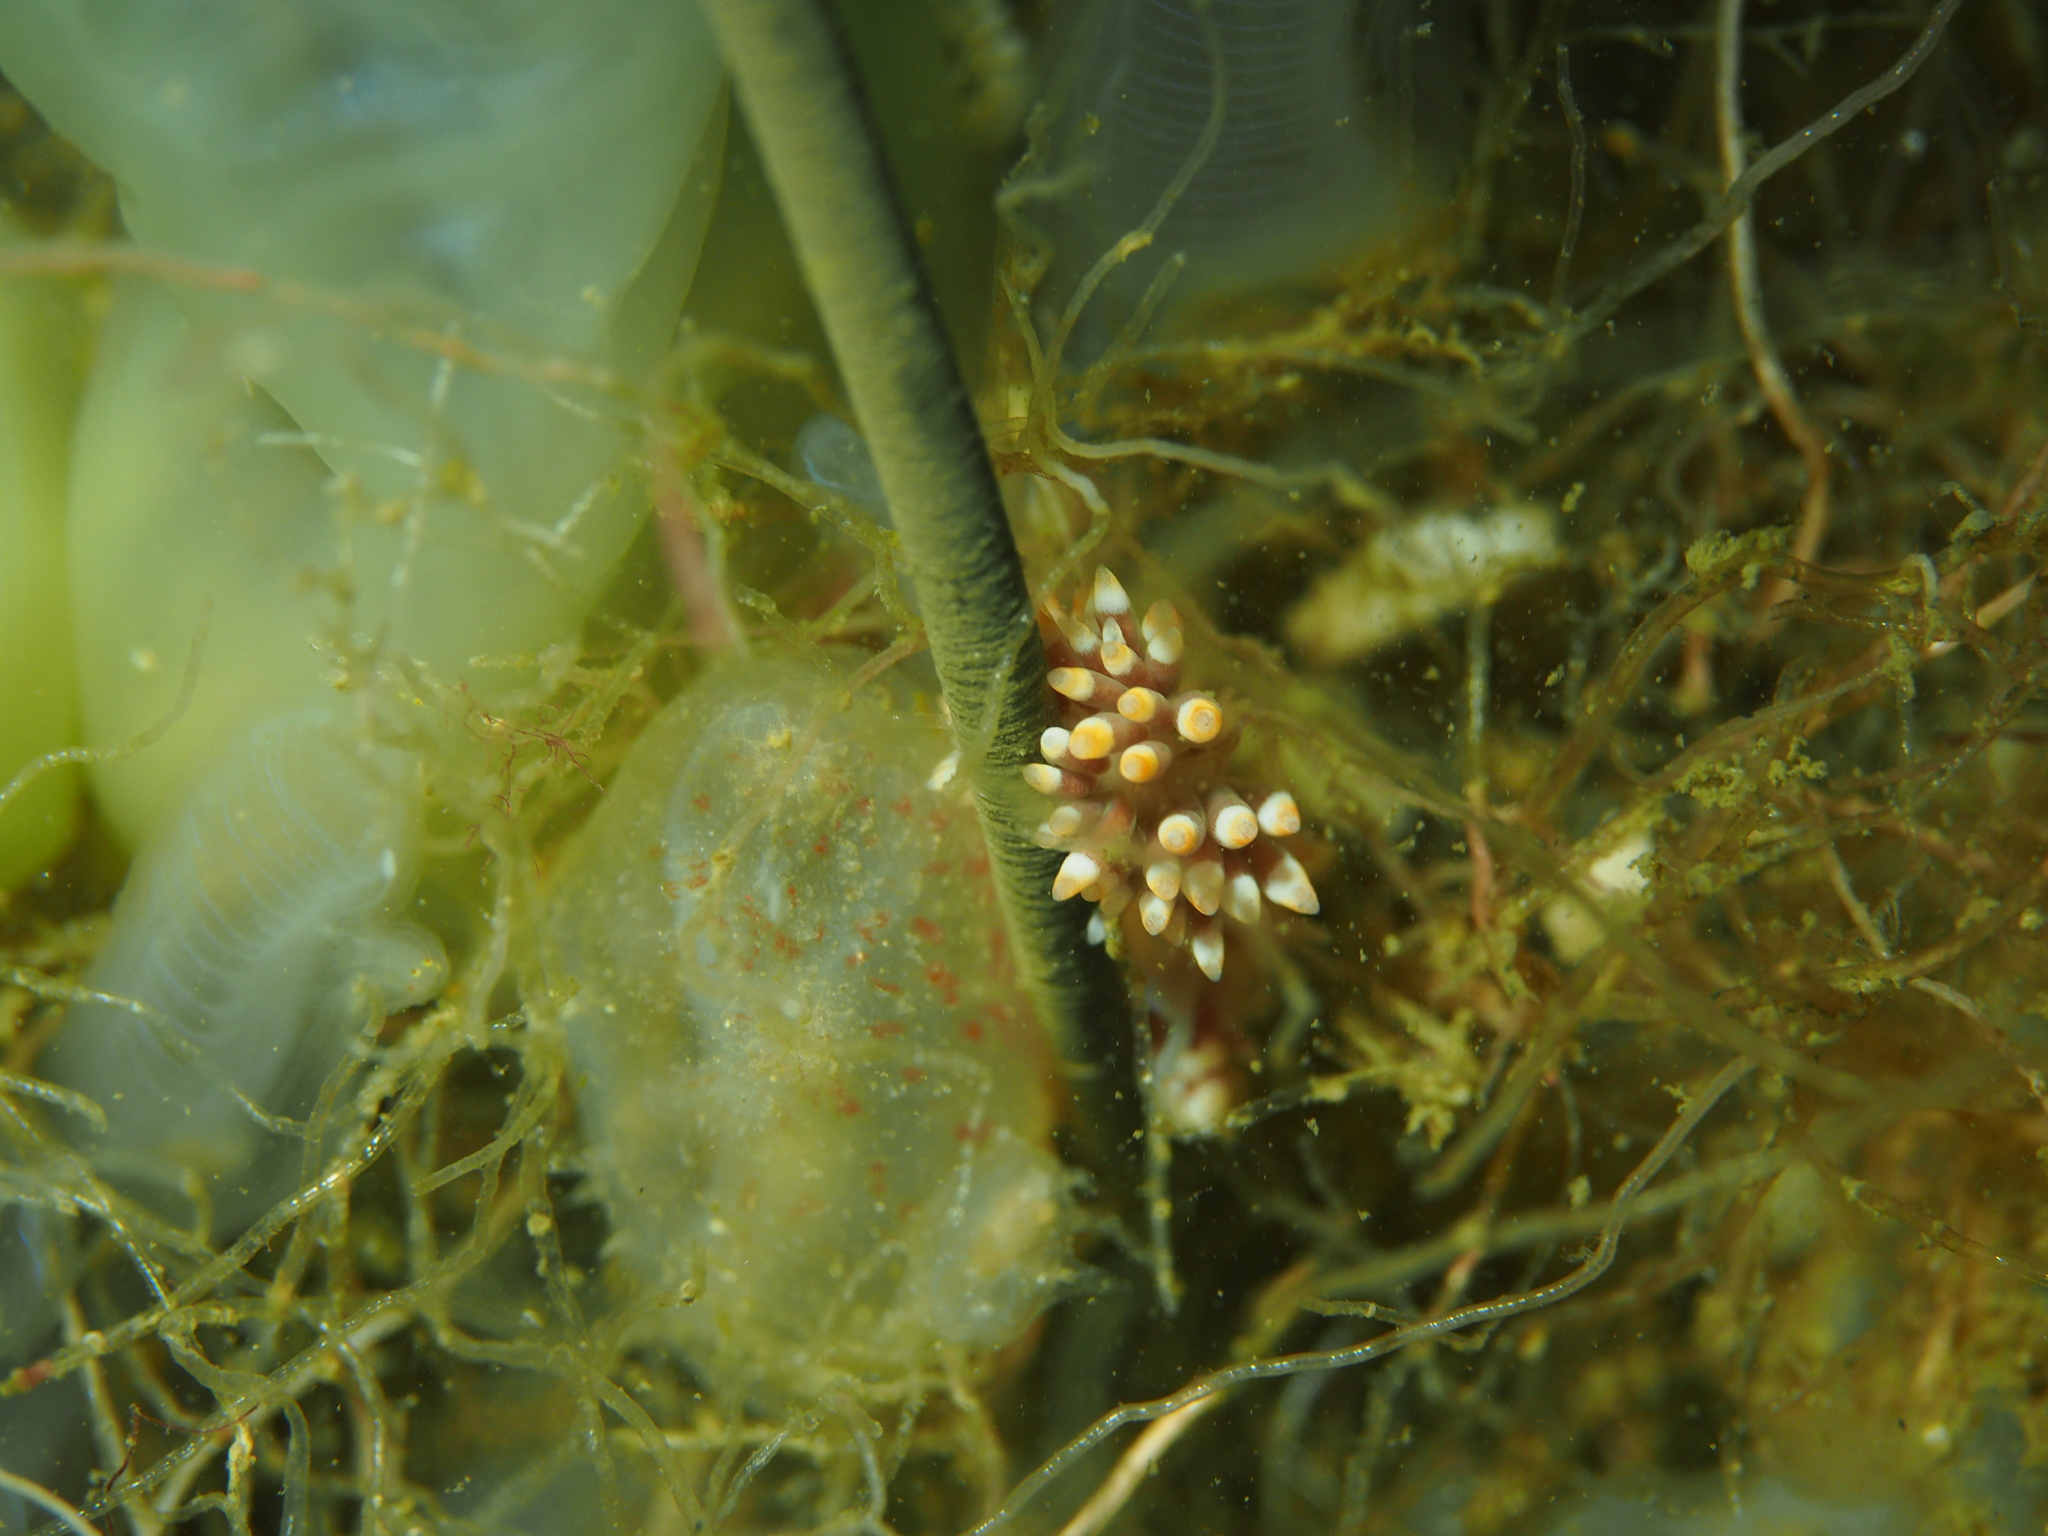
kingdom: Animalia
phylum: Mollusca
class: Gastropoda
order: Nudibranchia
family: Trinchesiidae
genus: Catriona
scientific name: Catriona aurantia
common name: Corange-tip cuthona
